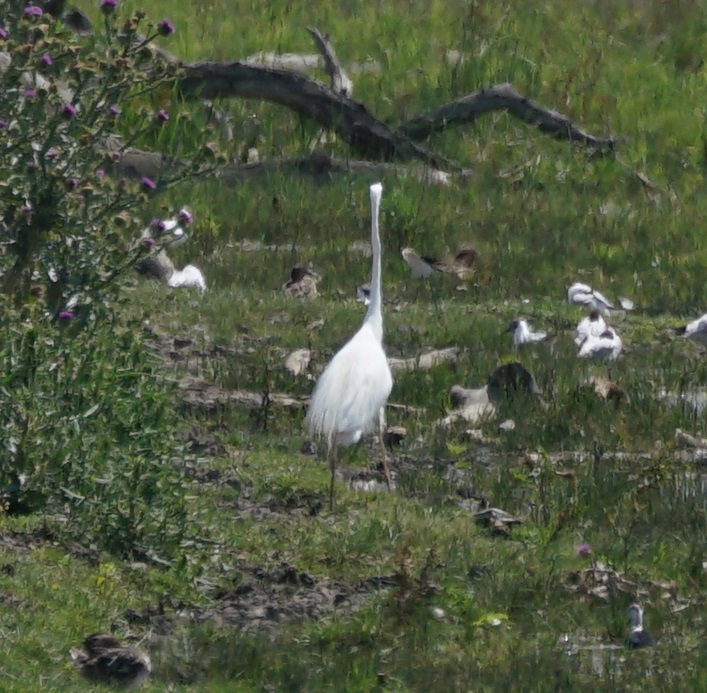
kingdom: Animalia
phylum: Chordata
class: Aves
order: Pelecaniformes
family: Ardeidae
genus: Ardea
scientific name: Ardea alba
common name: Great egret
